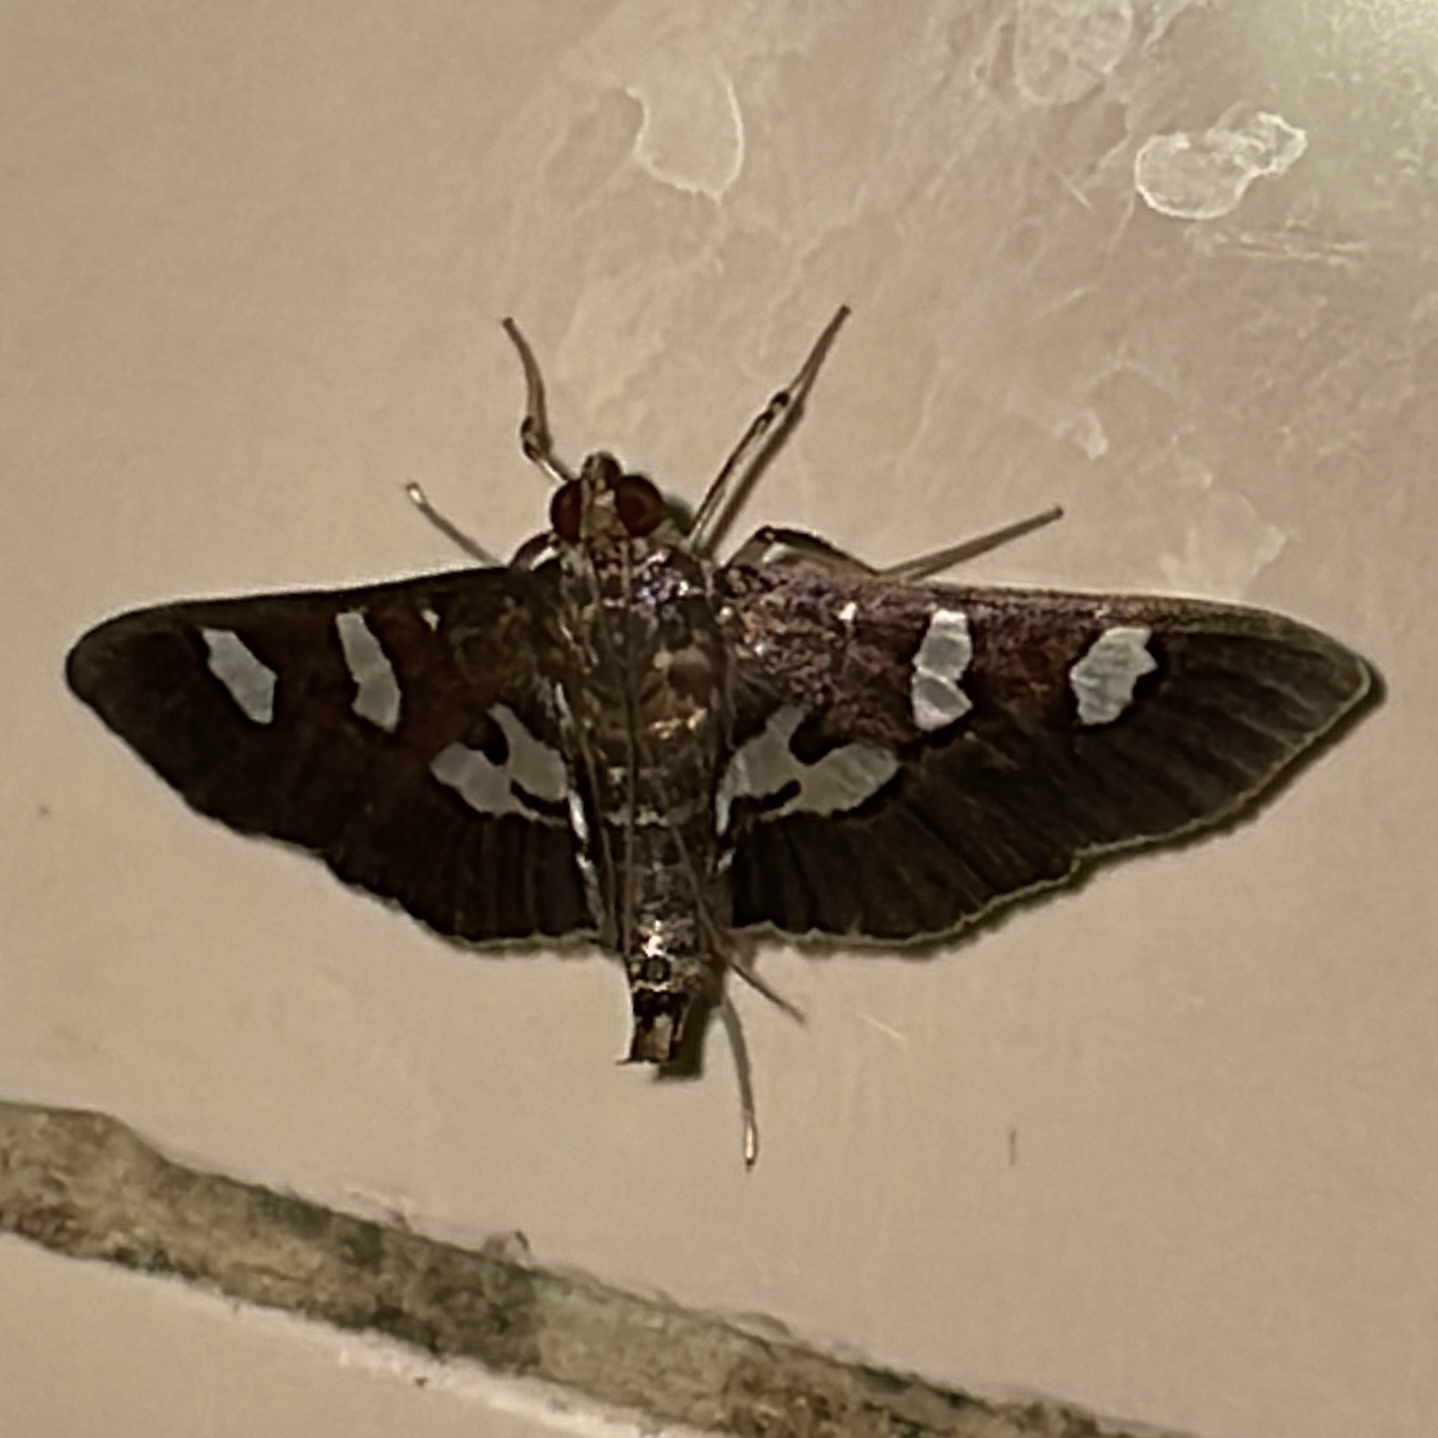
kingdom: Animalia
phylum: Arthropoda
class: Insecta
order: Lepidoptera
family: Crambidae
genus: Desmia
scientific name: Desmia tages
